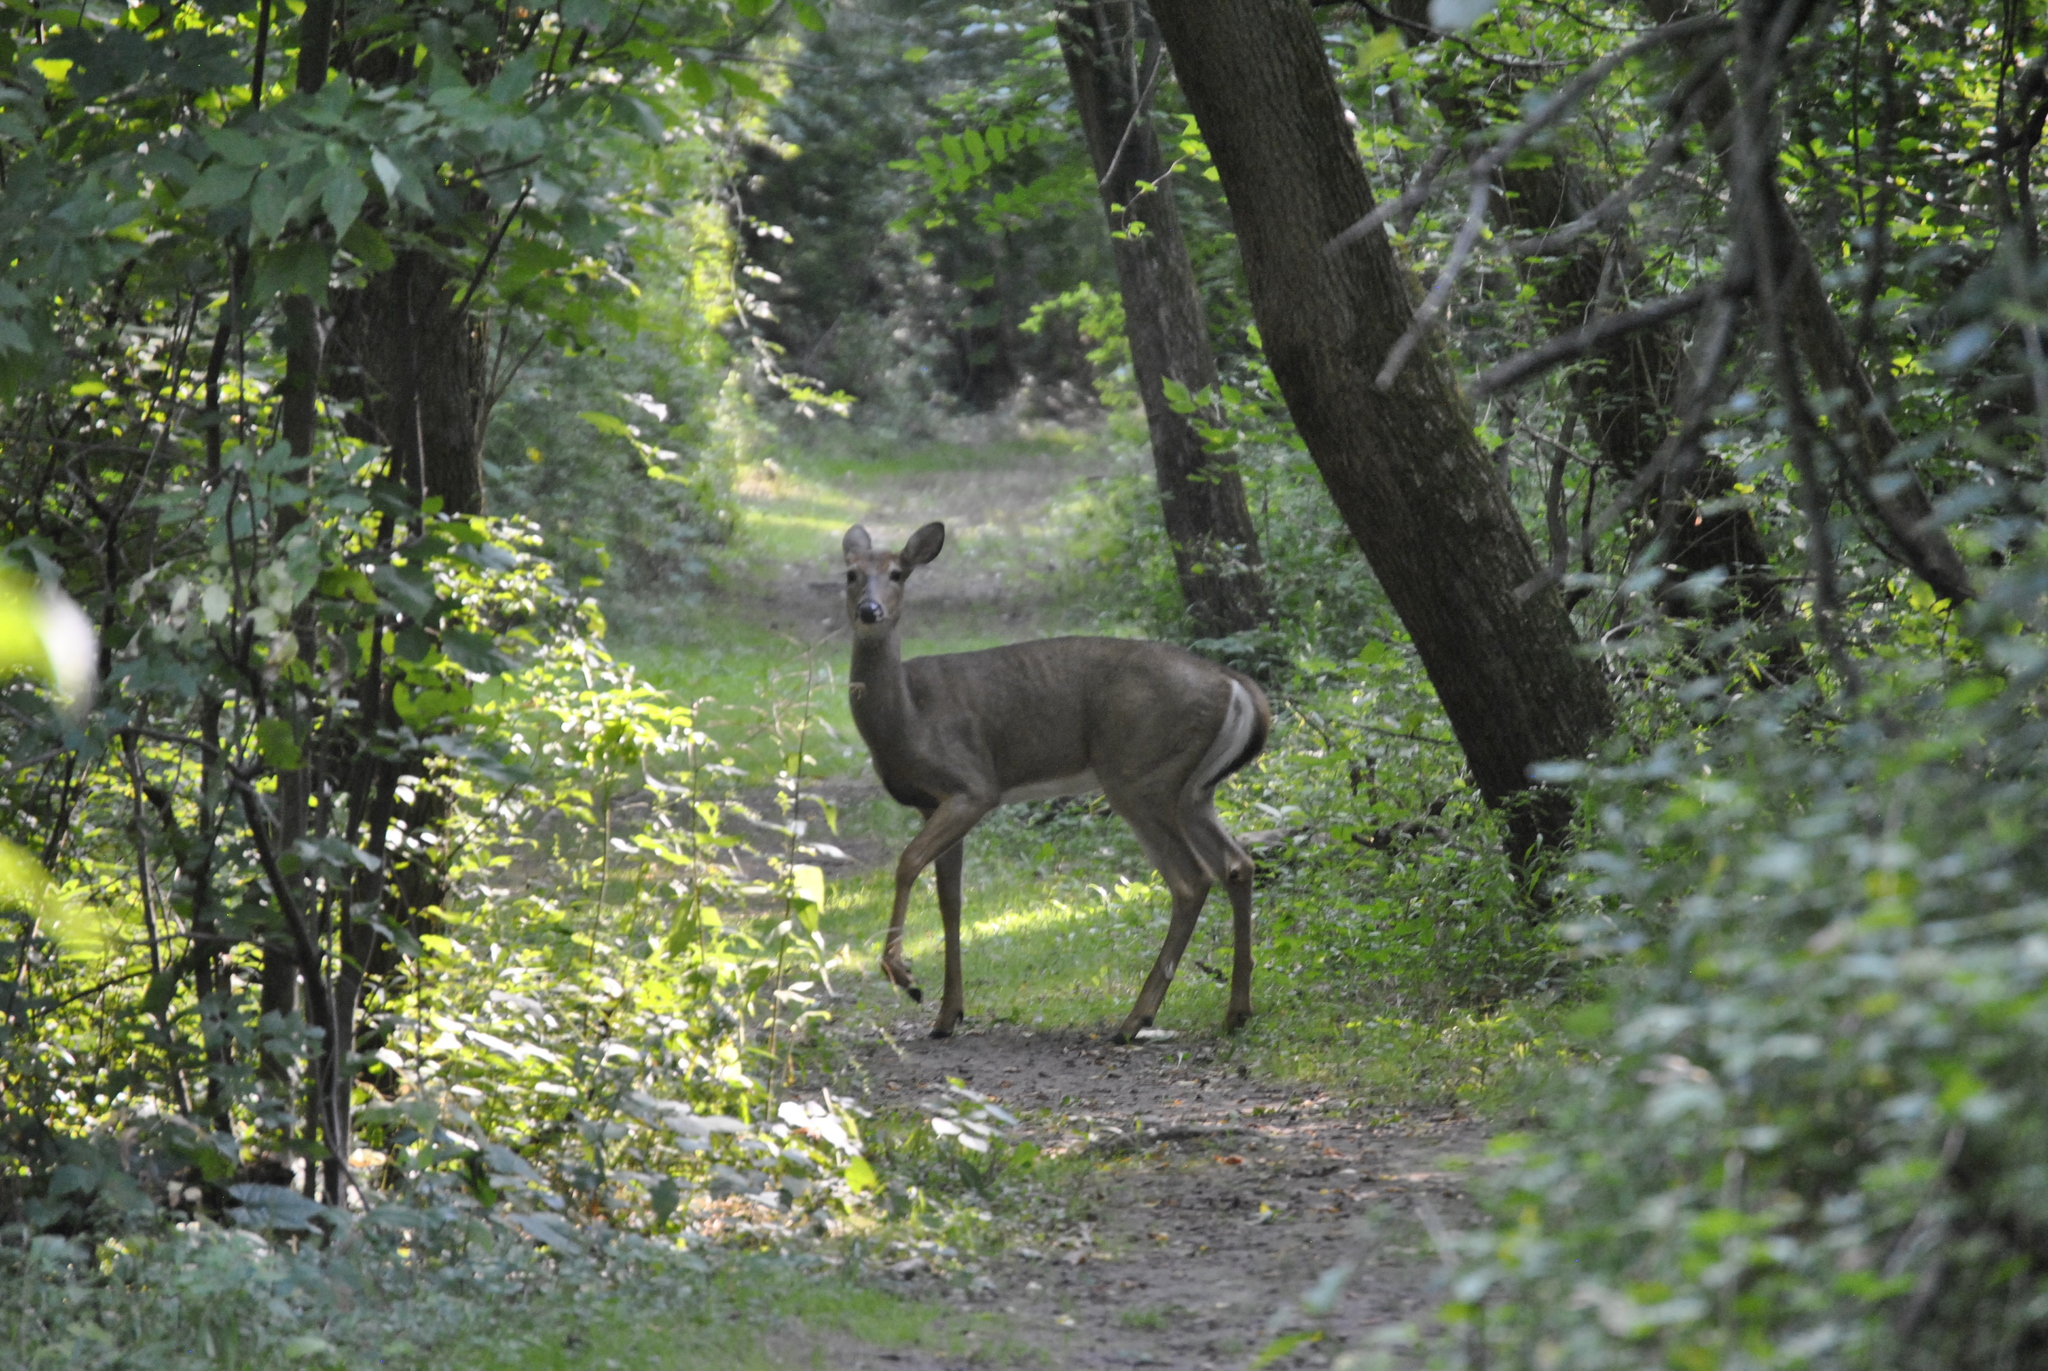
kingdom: Animalia
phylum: Chordata
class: Mammalia
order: Artiodactyla
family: Cervidae
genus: Odocoileus
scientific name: Odocoileus virginianus
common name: White-tailed deer
